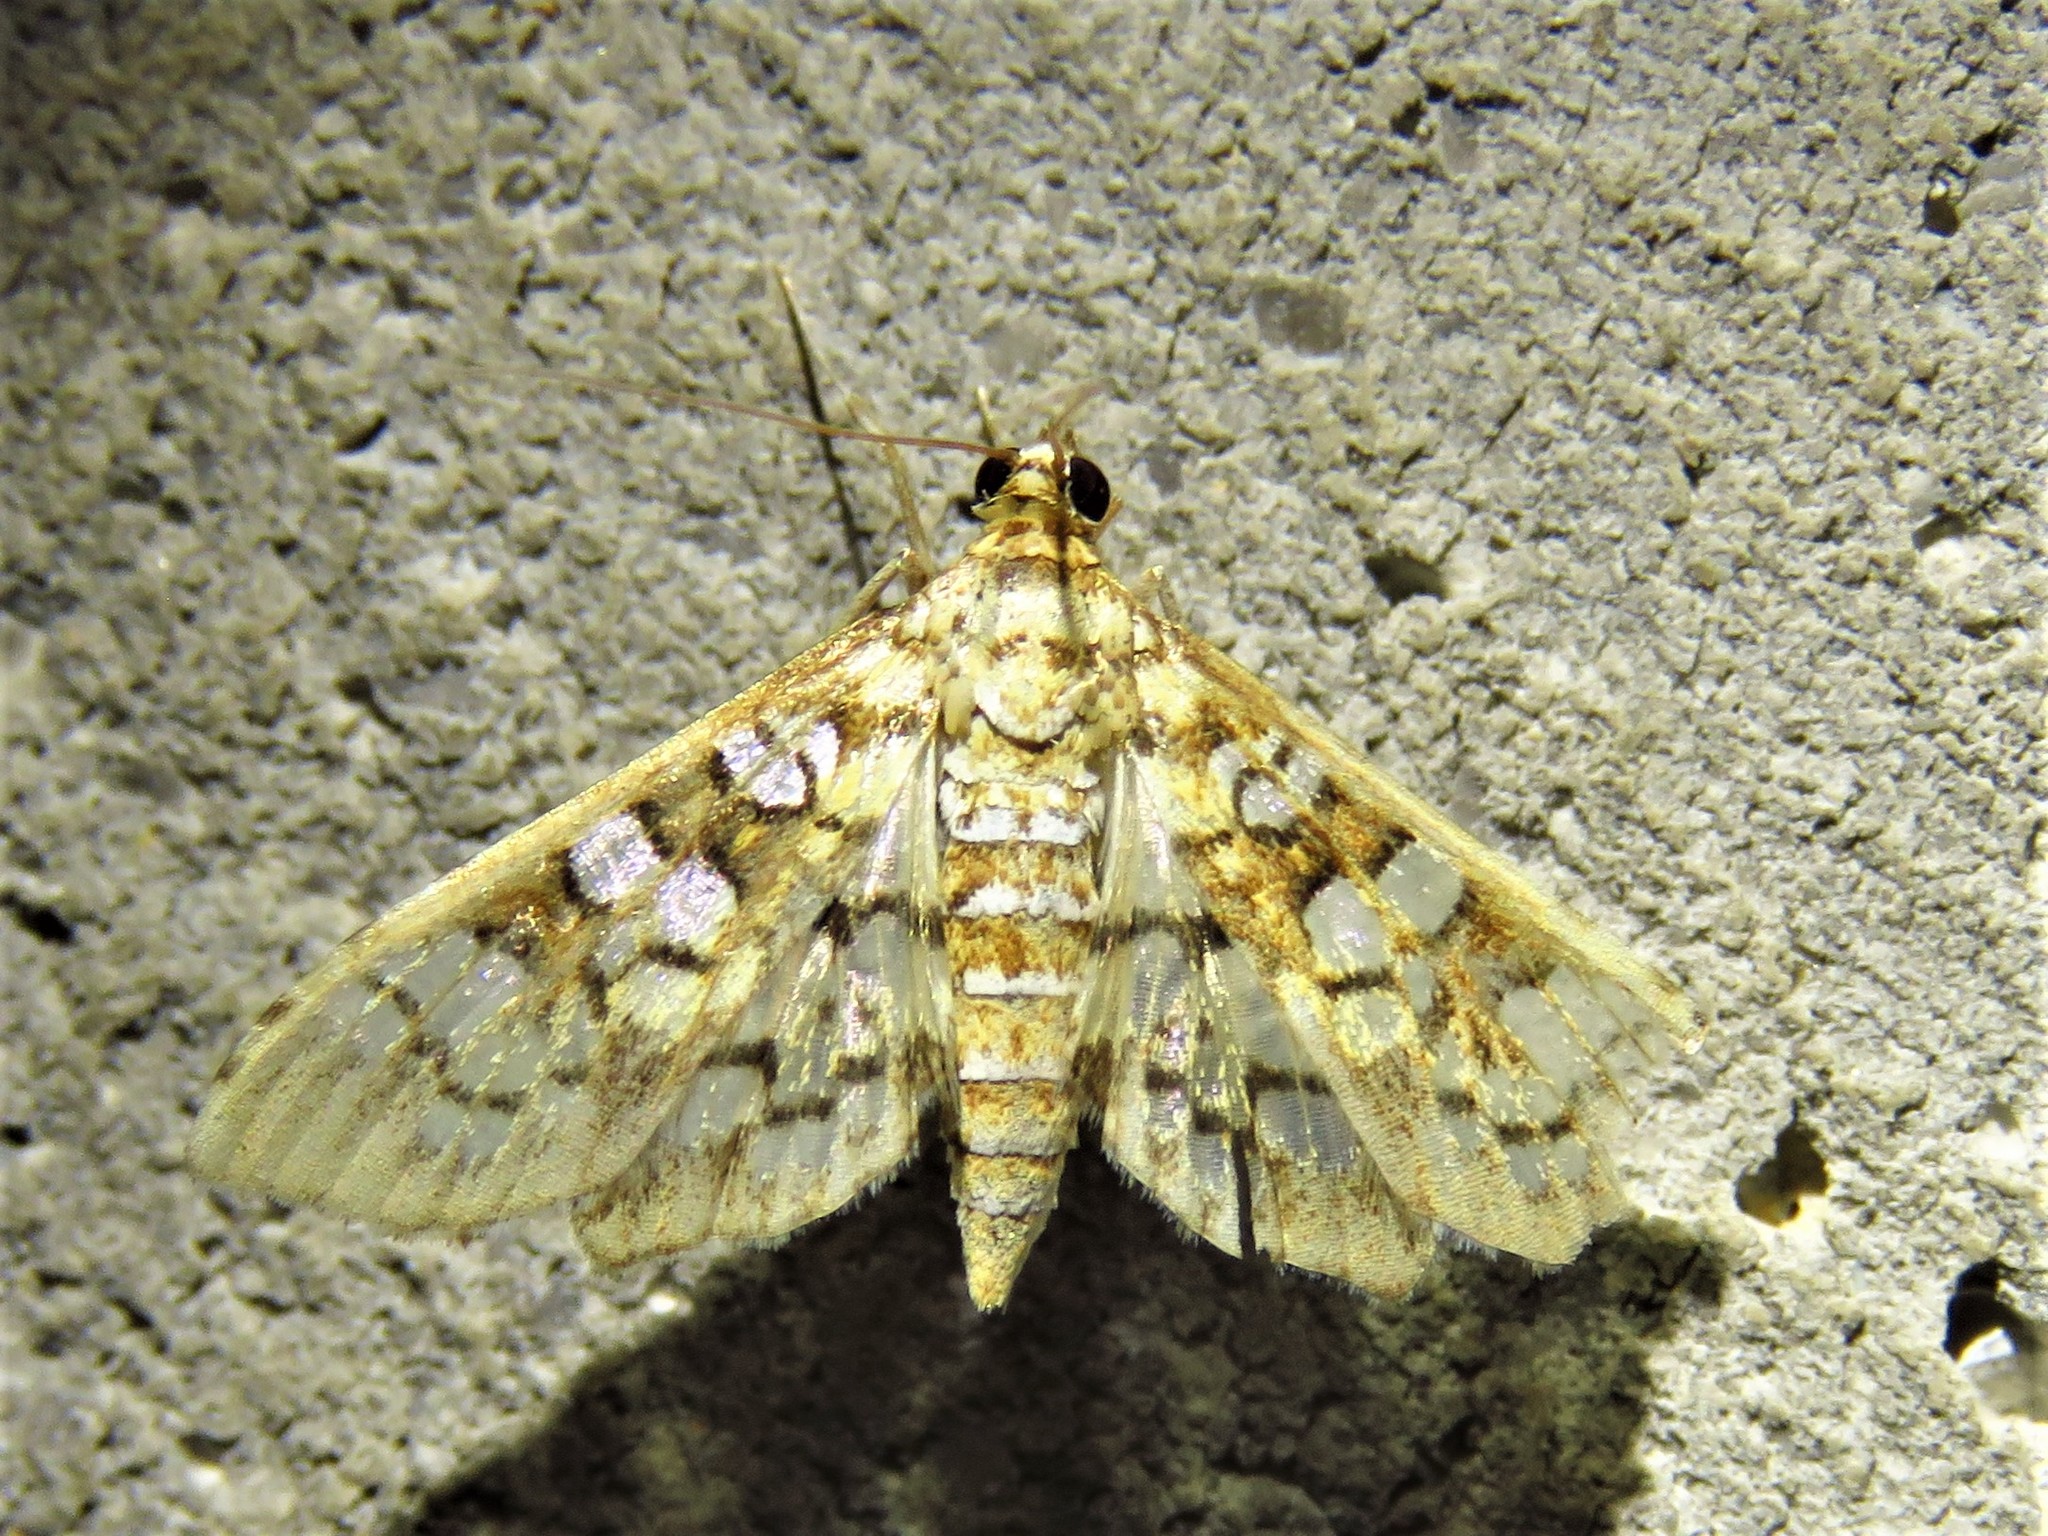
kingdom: Animalia
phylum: Arthropoda
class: Insecta
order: Lepidoptera
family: Crambidae
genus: Samea
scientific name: Samea ecclesialis
